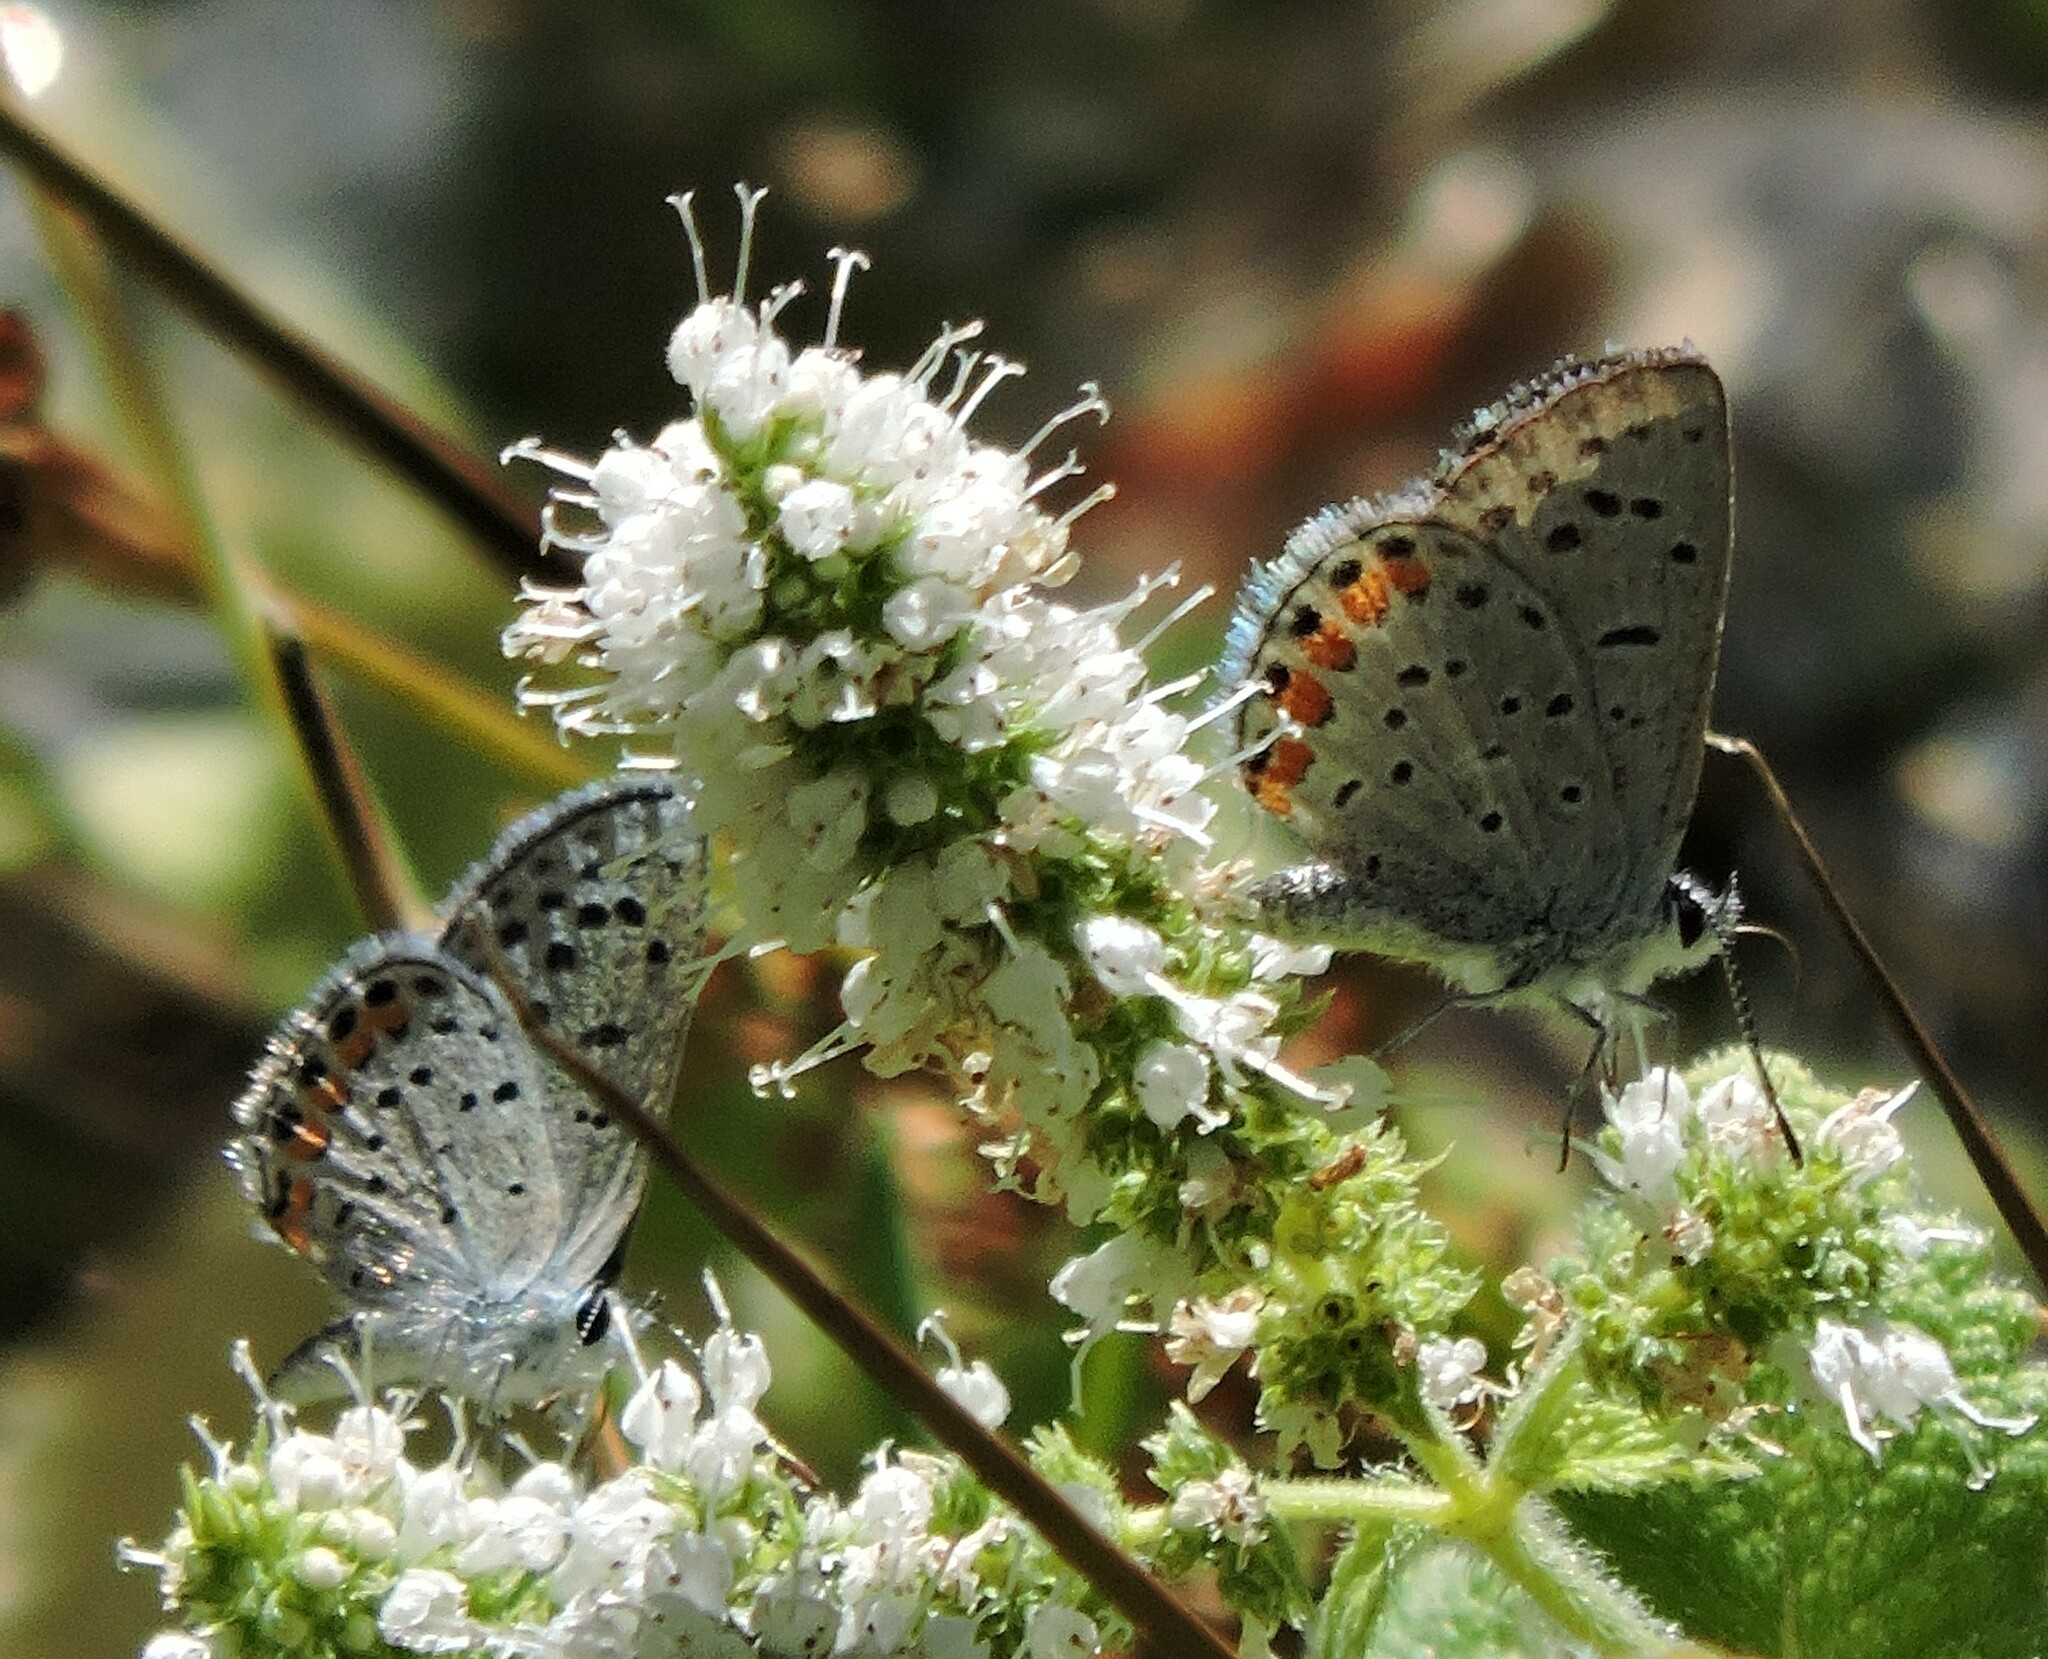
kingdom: Animalia
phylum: Arthropoda
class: Insecta
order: Lepidoptera
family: Lycaenidae
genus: Icaricia
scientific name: Icaricia acmon
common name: Acmon blue
